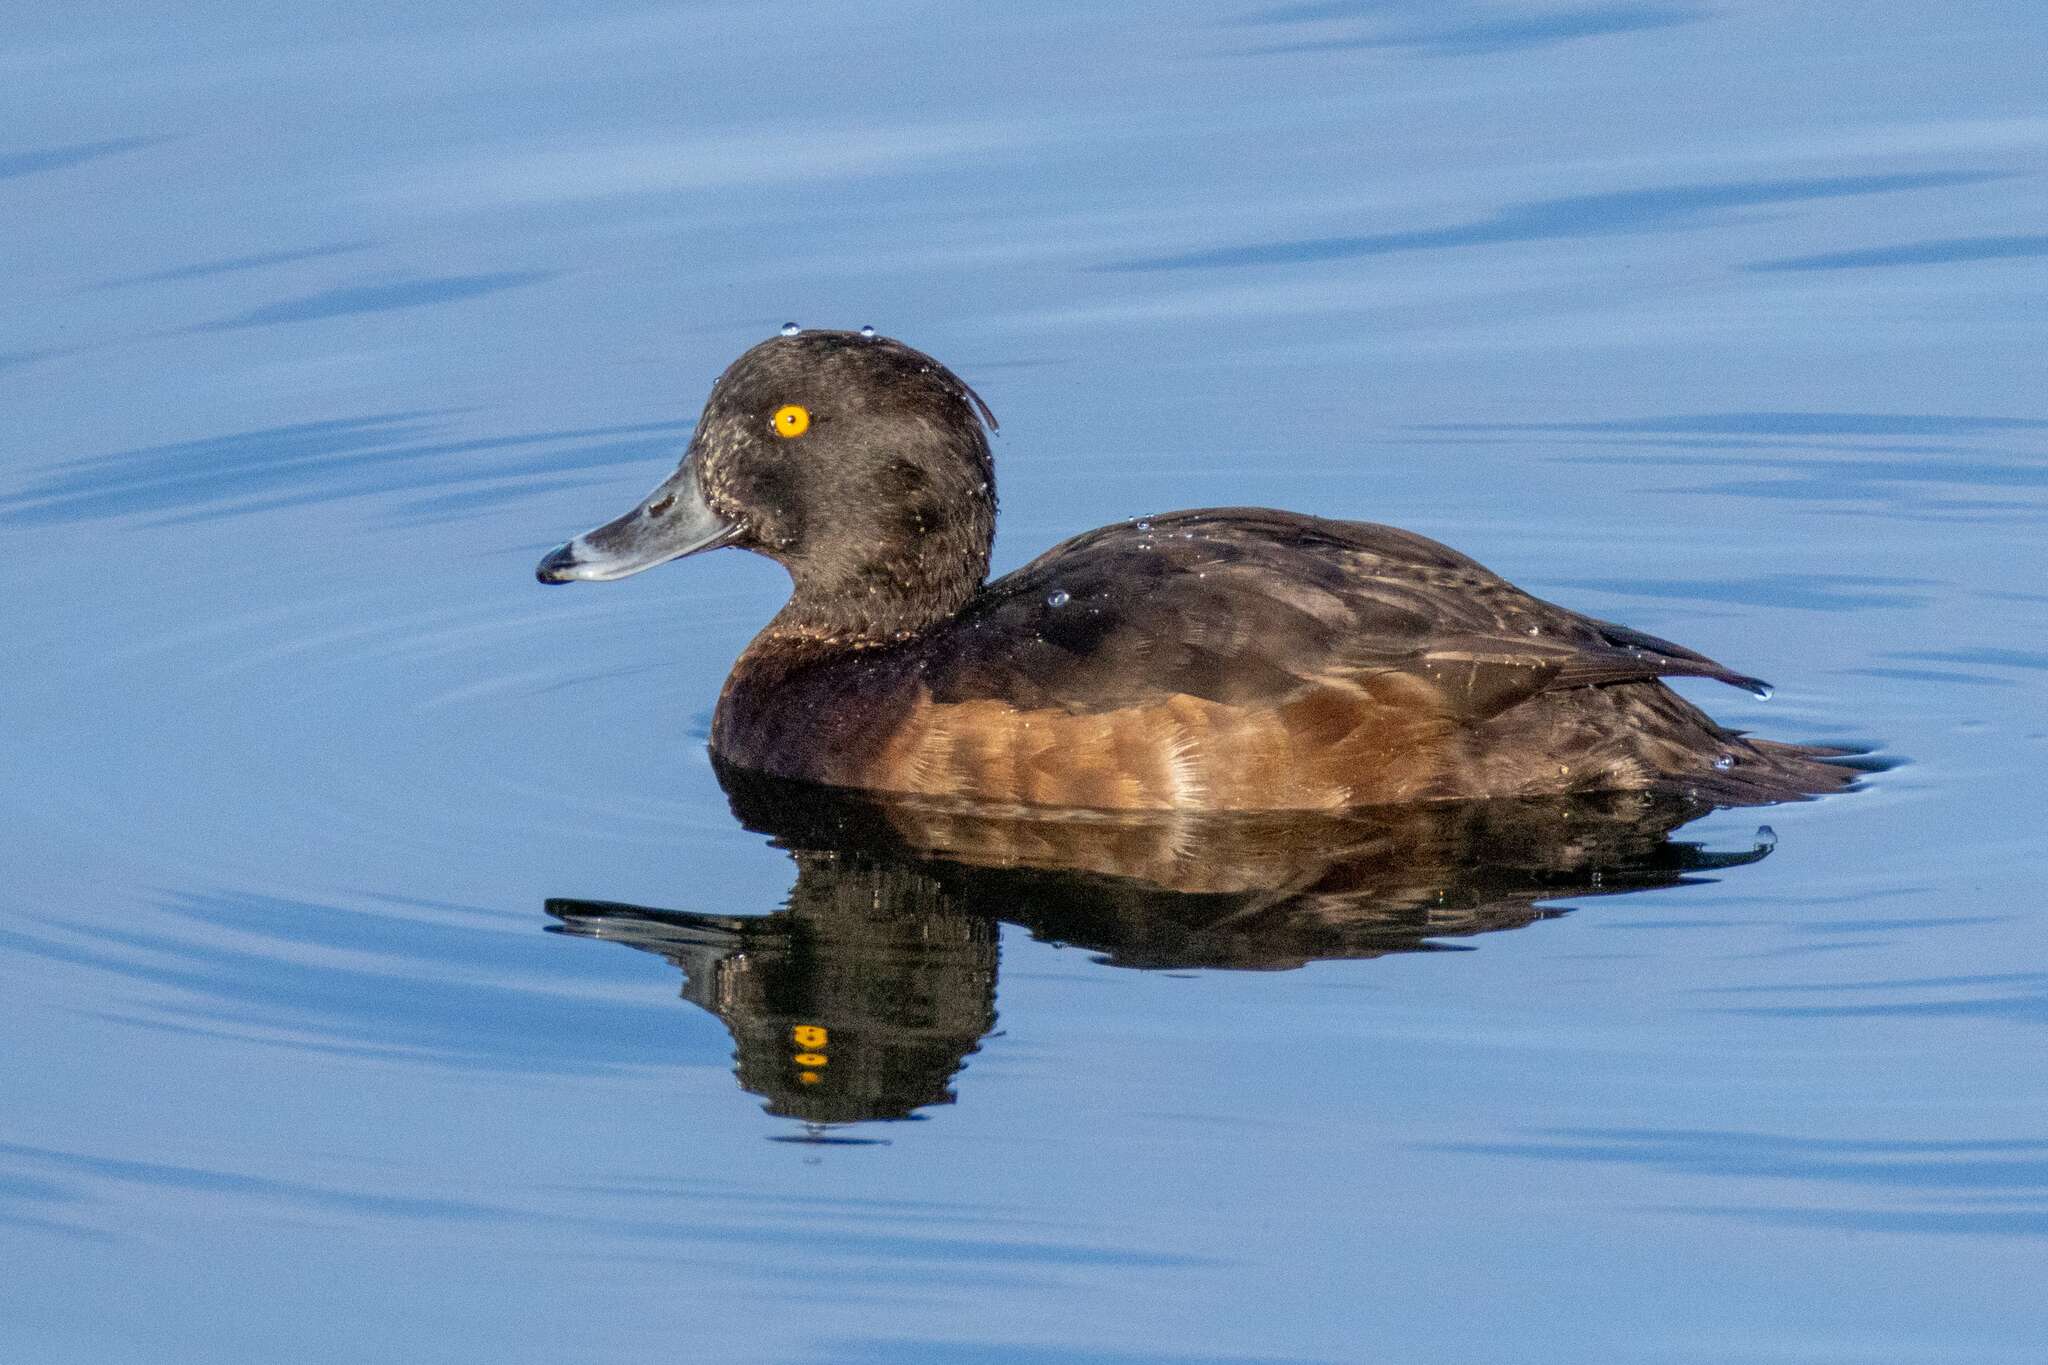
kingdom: Animalia
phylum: Chordata
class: Aves
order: Anseriformes
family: Anatidae
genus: Aythya
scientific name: Aythya fuligula
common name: Tufted duck
